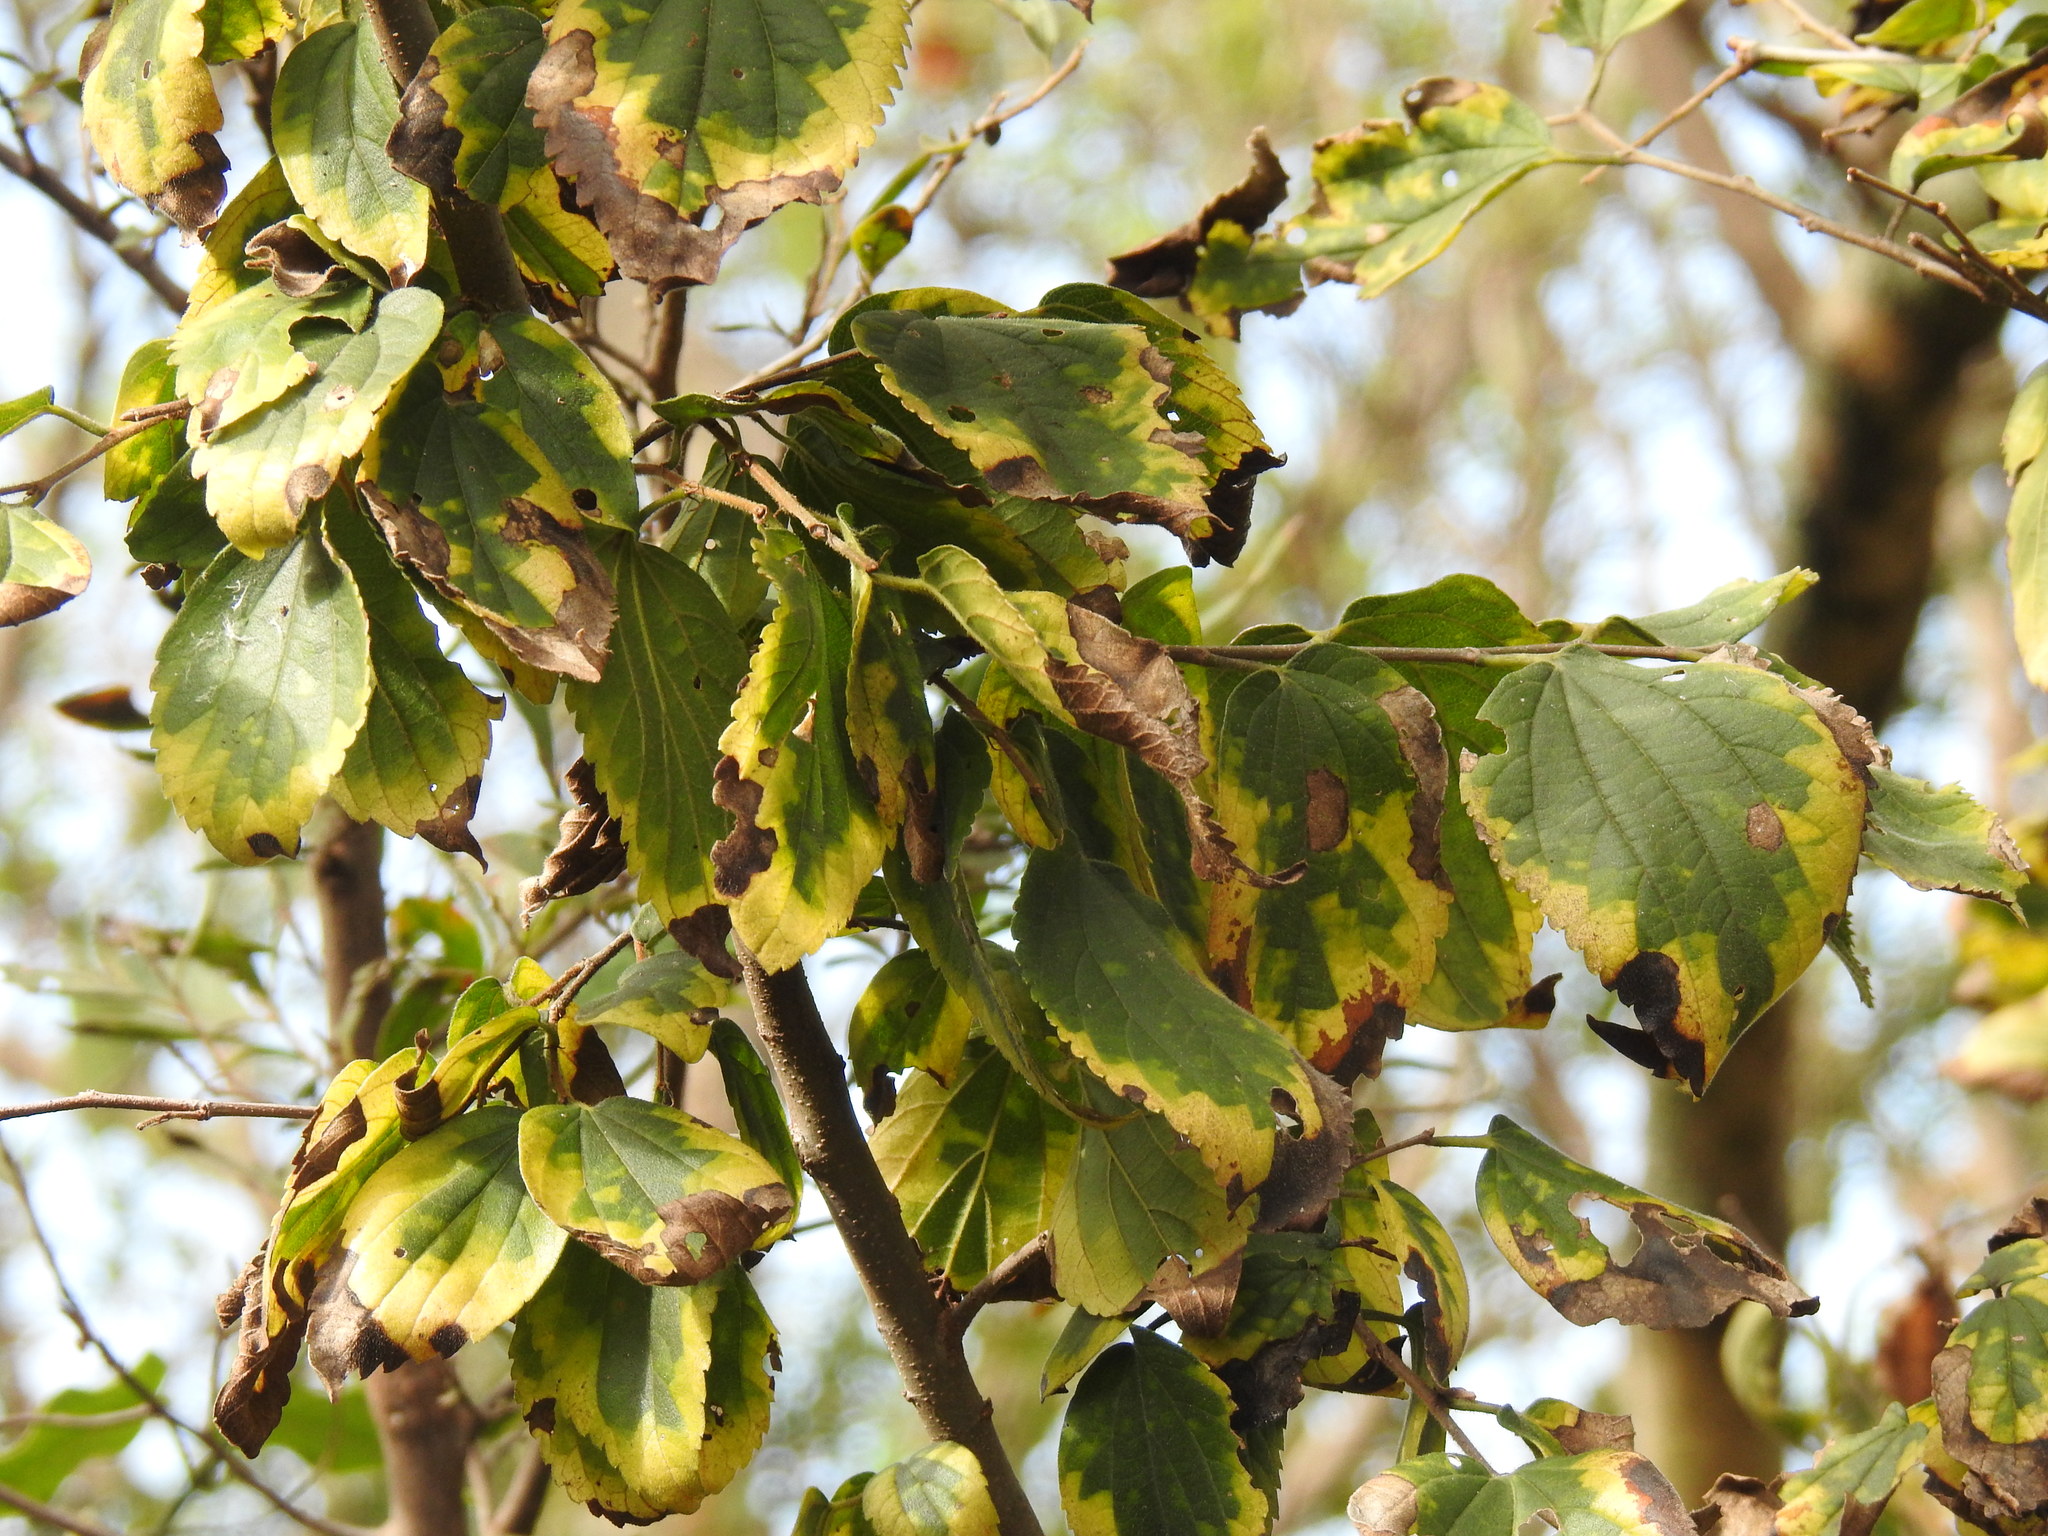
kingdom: Plantae
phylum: Tracheophyta
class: Magnoliopsida
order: Rosales
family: Cannabaceae
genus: Celtis
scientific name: Celtis africana
